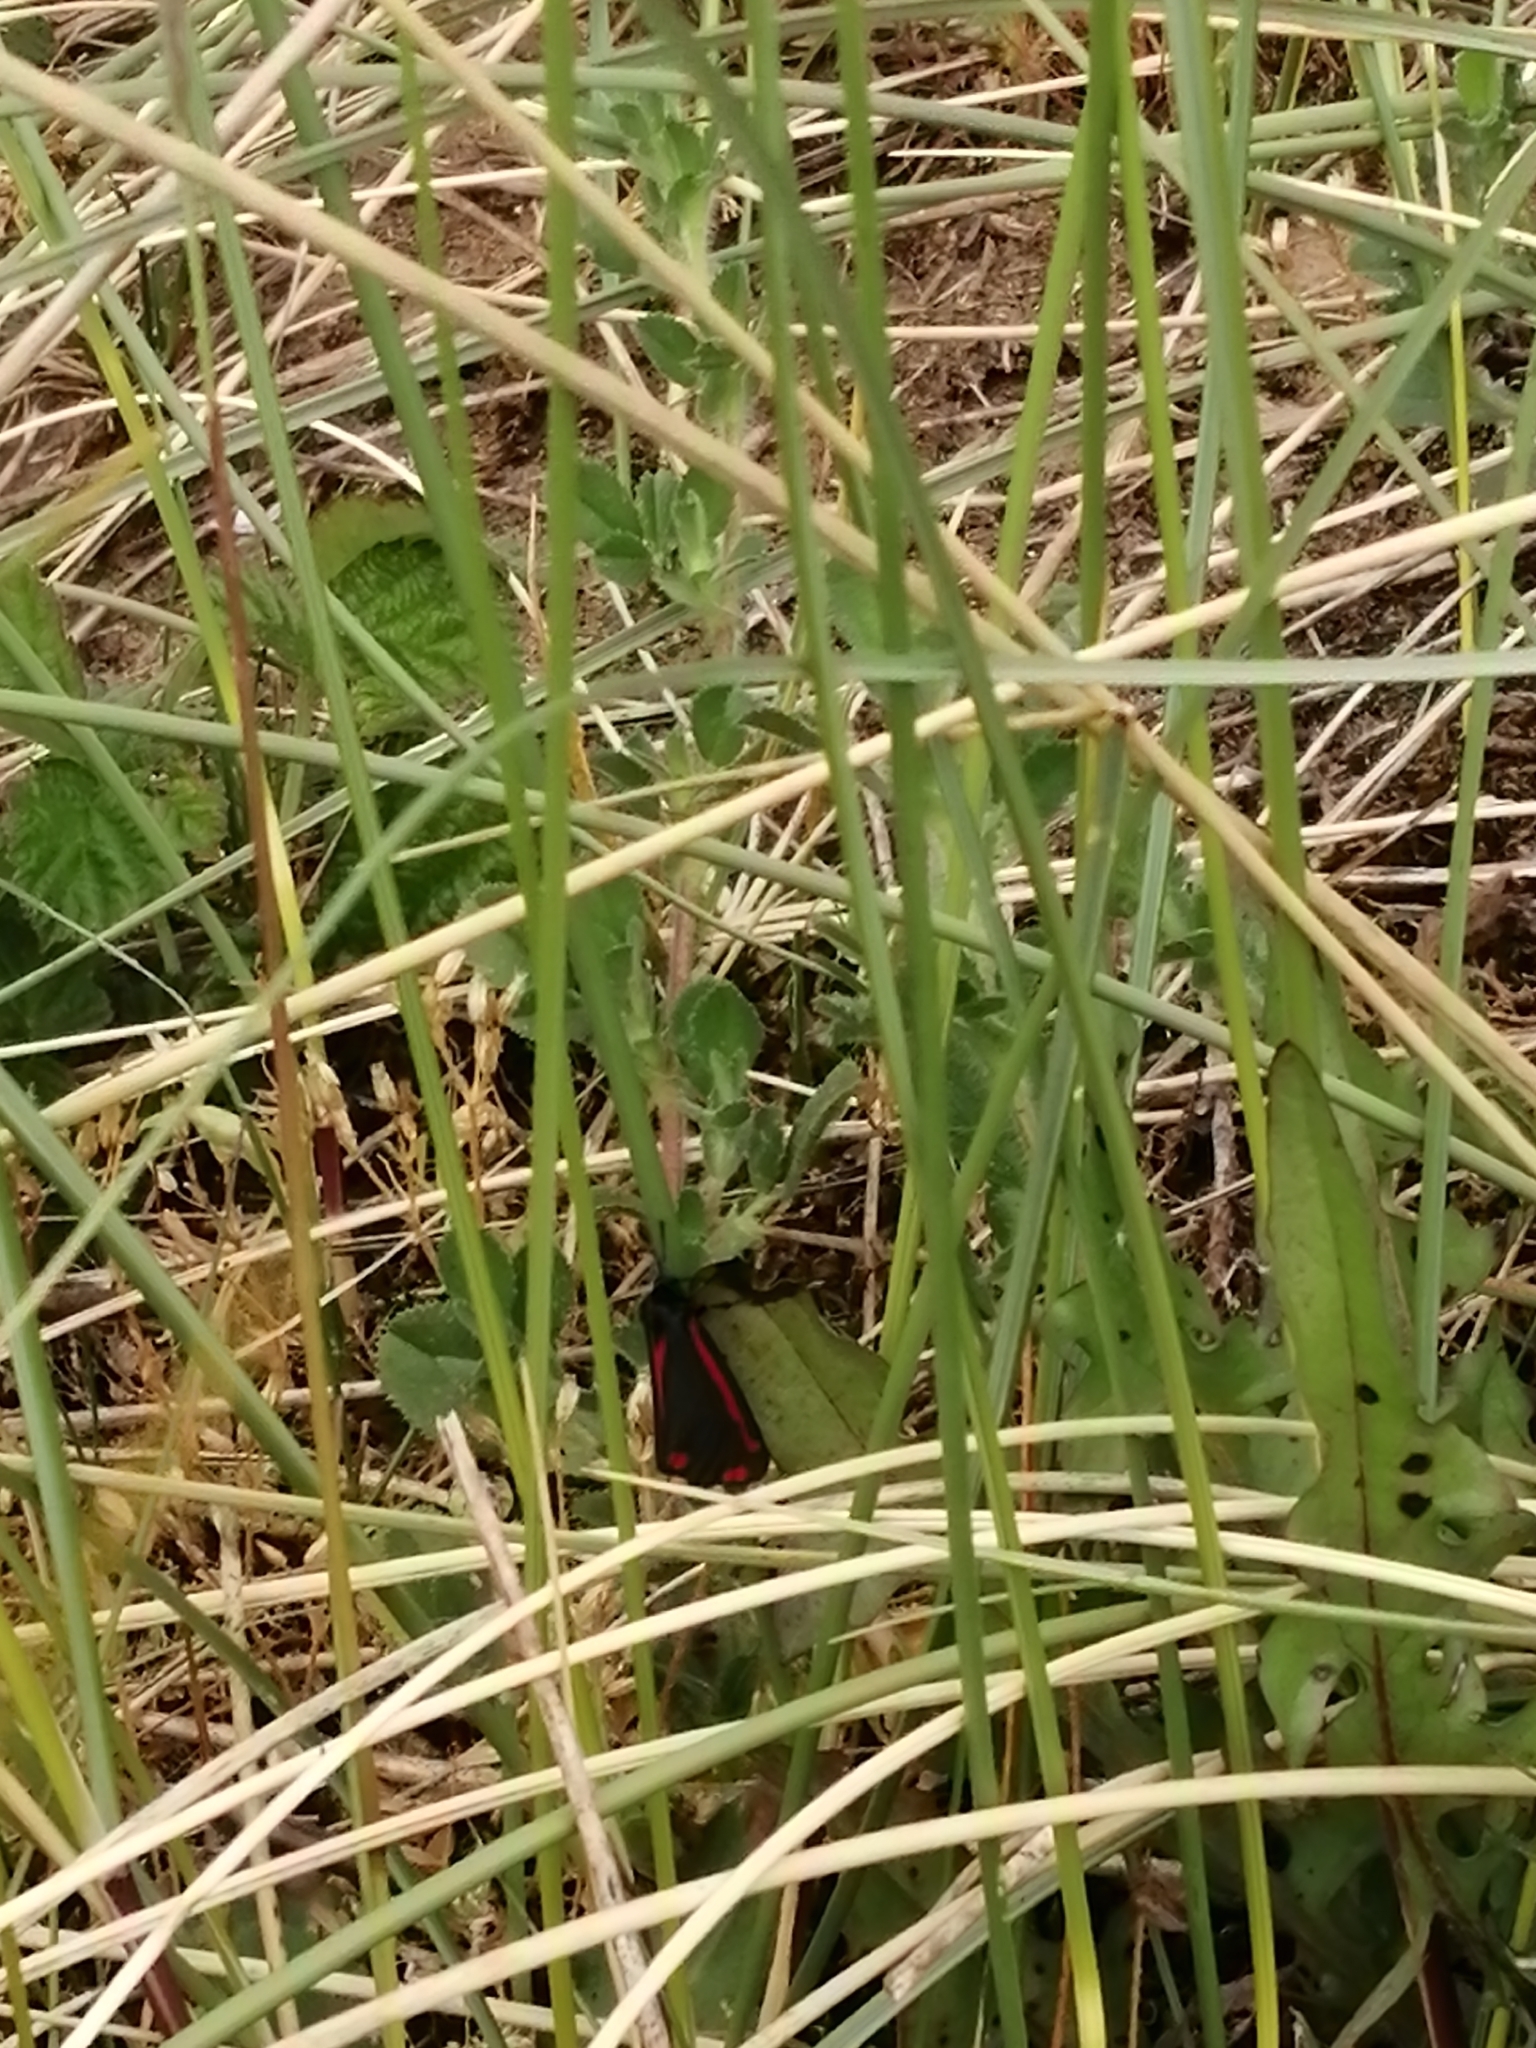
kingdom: Animalia
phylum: Arthropoda
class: Insecta
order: Lepidoptera
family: Erebidae
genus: Tyria
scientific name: Tyria jacobaeae
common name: Cinnabar
